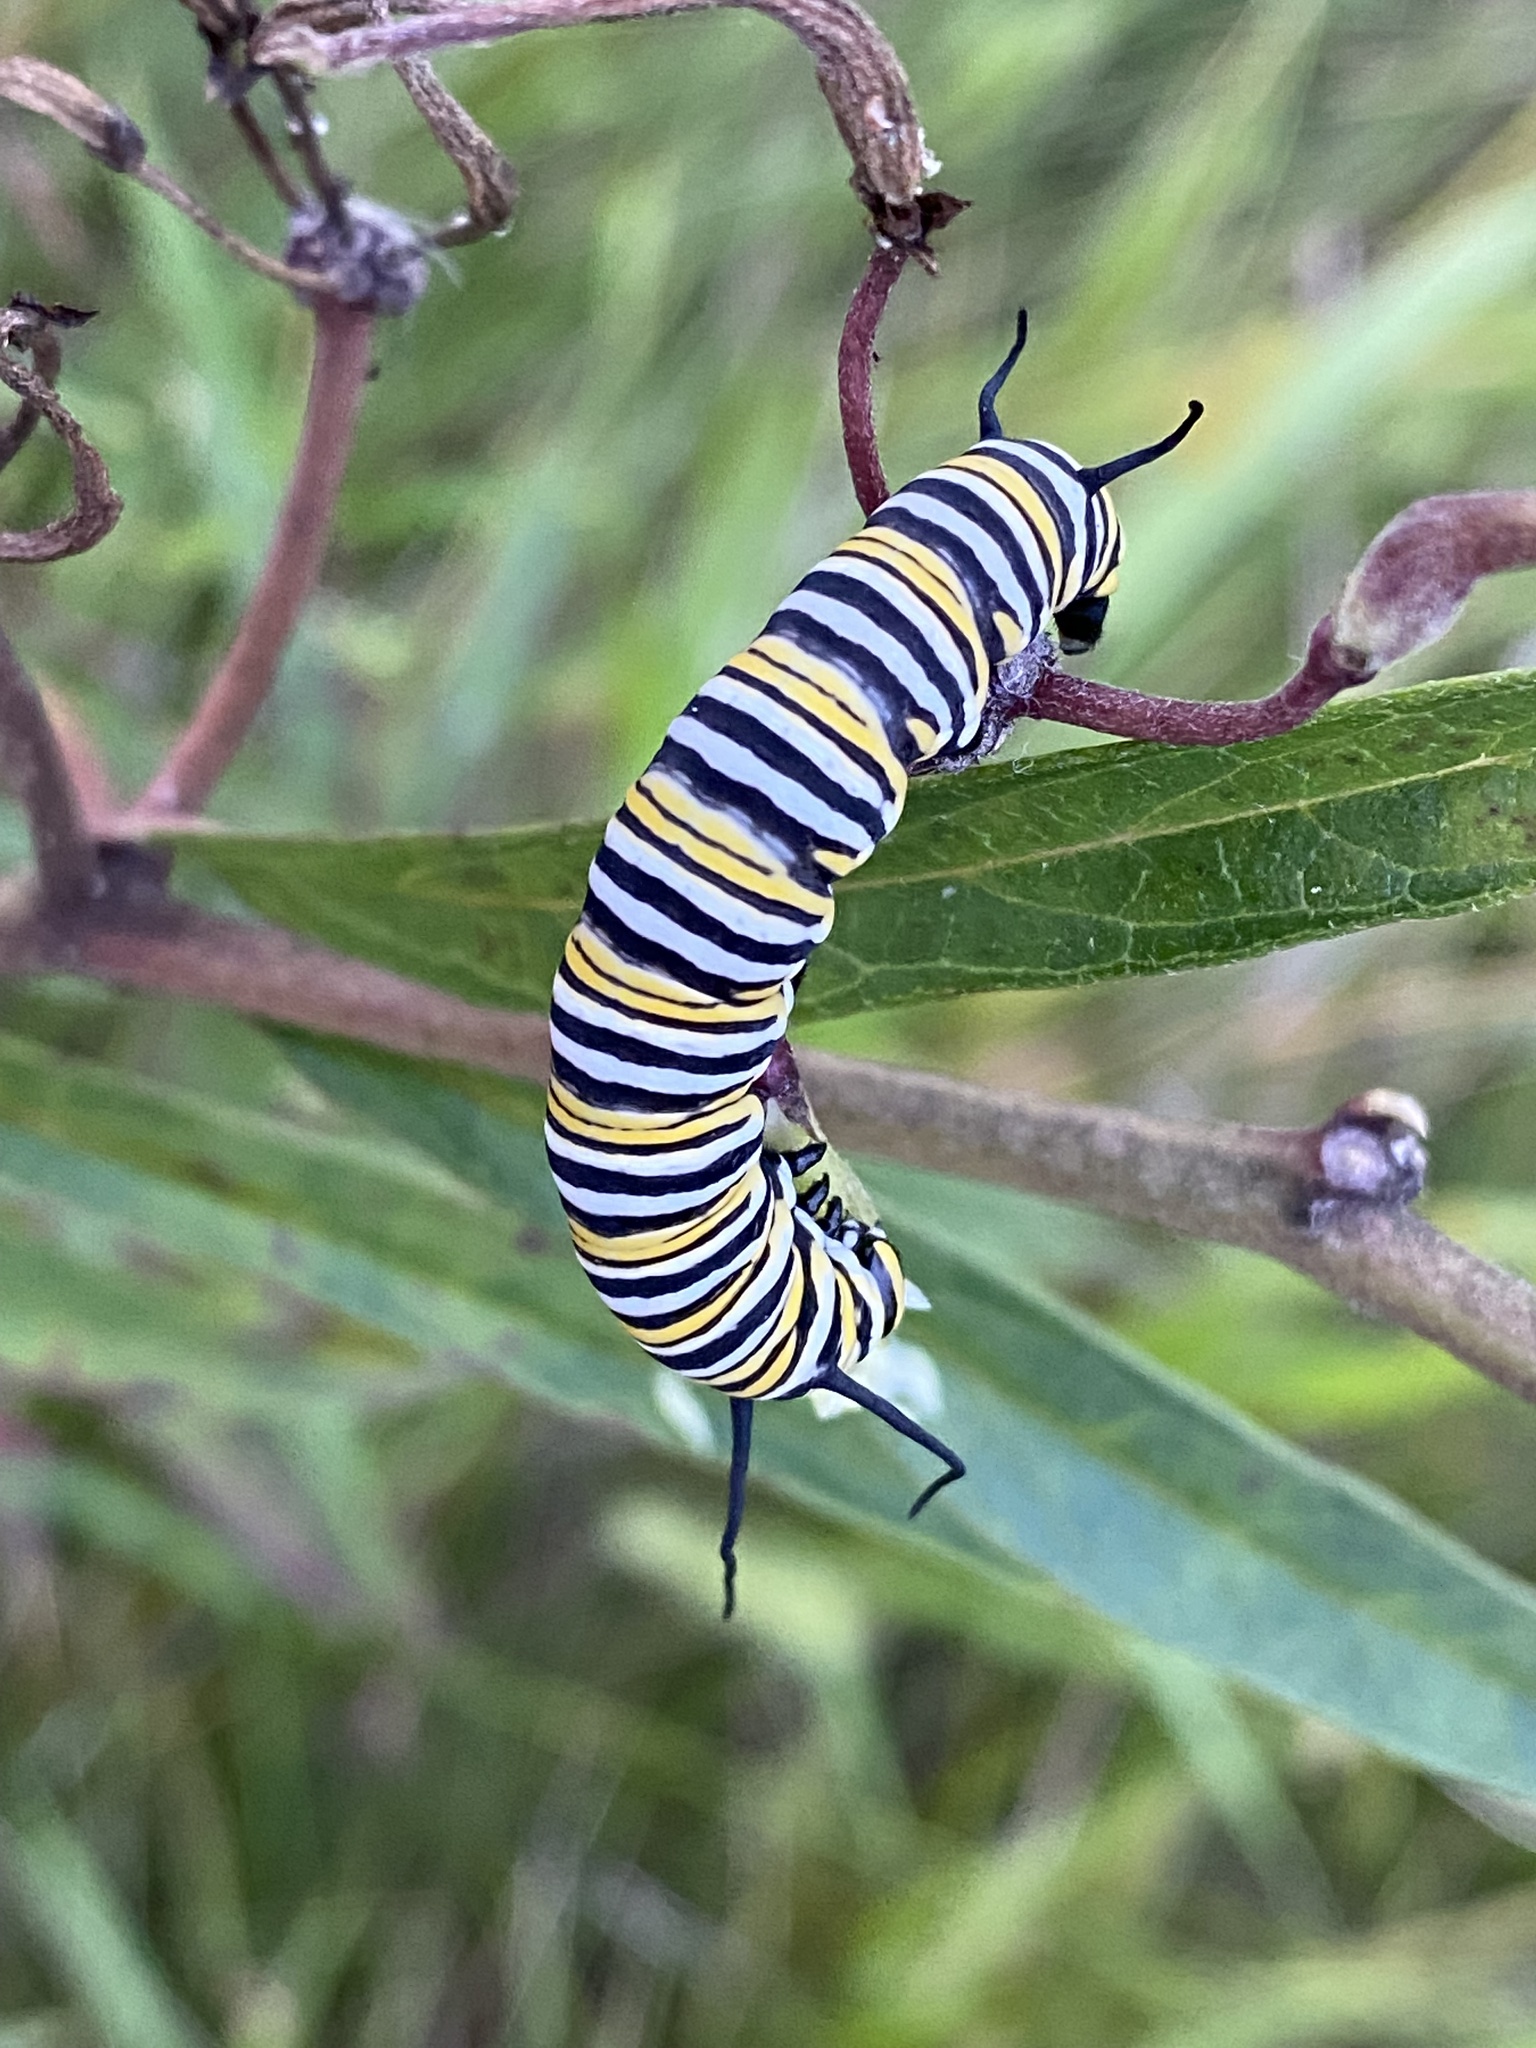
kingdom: Animalia
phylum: Arthropoda
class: Insecta
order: Lepidoptera
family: Nymphalidae
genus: Danaus
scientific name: Danaus plexippus
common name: Monarch
